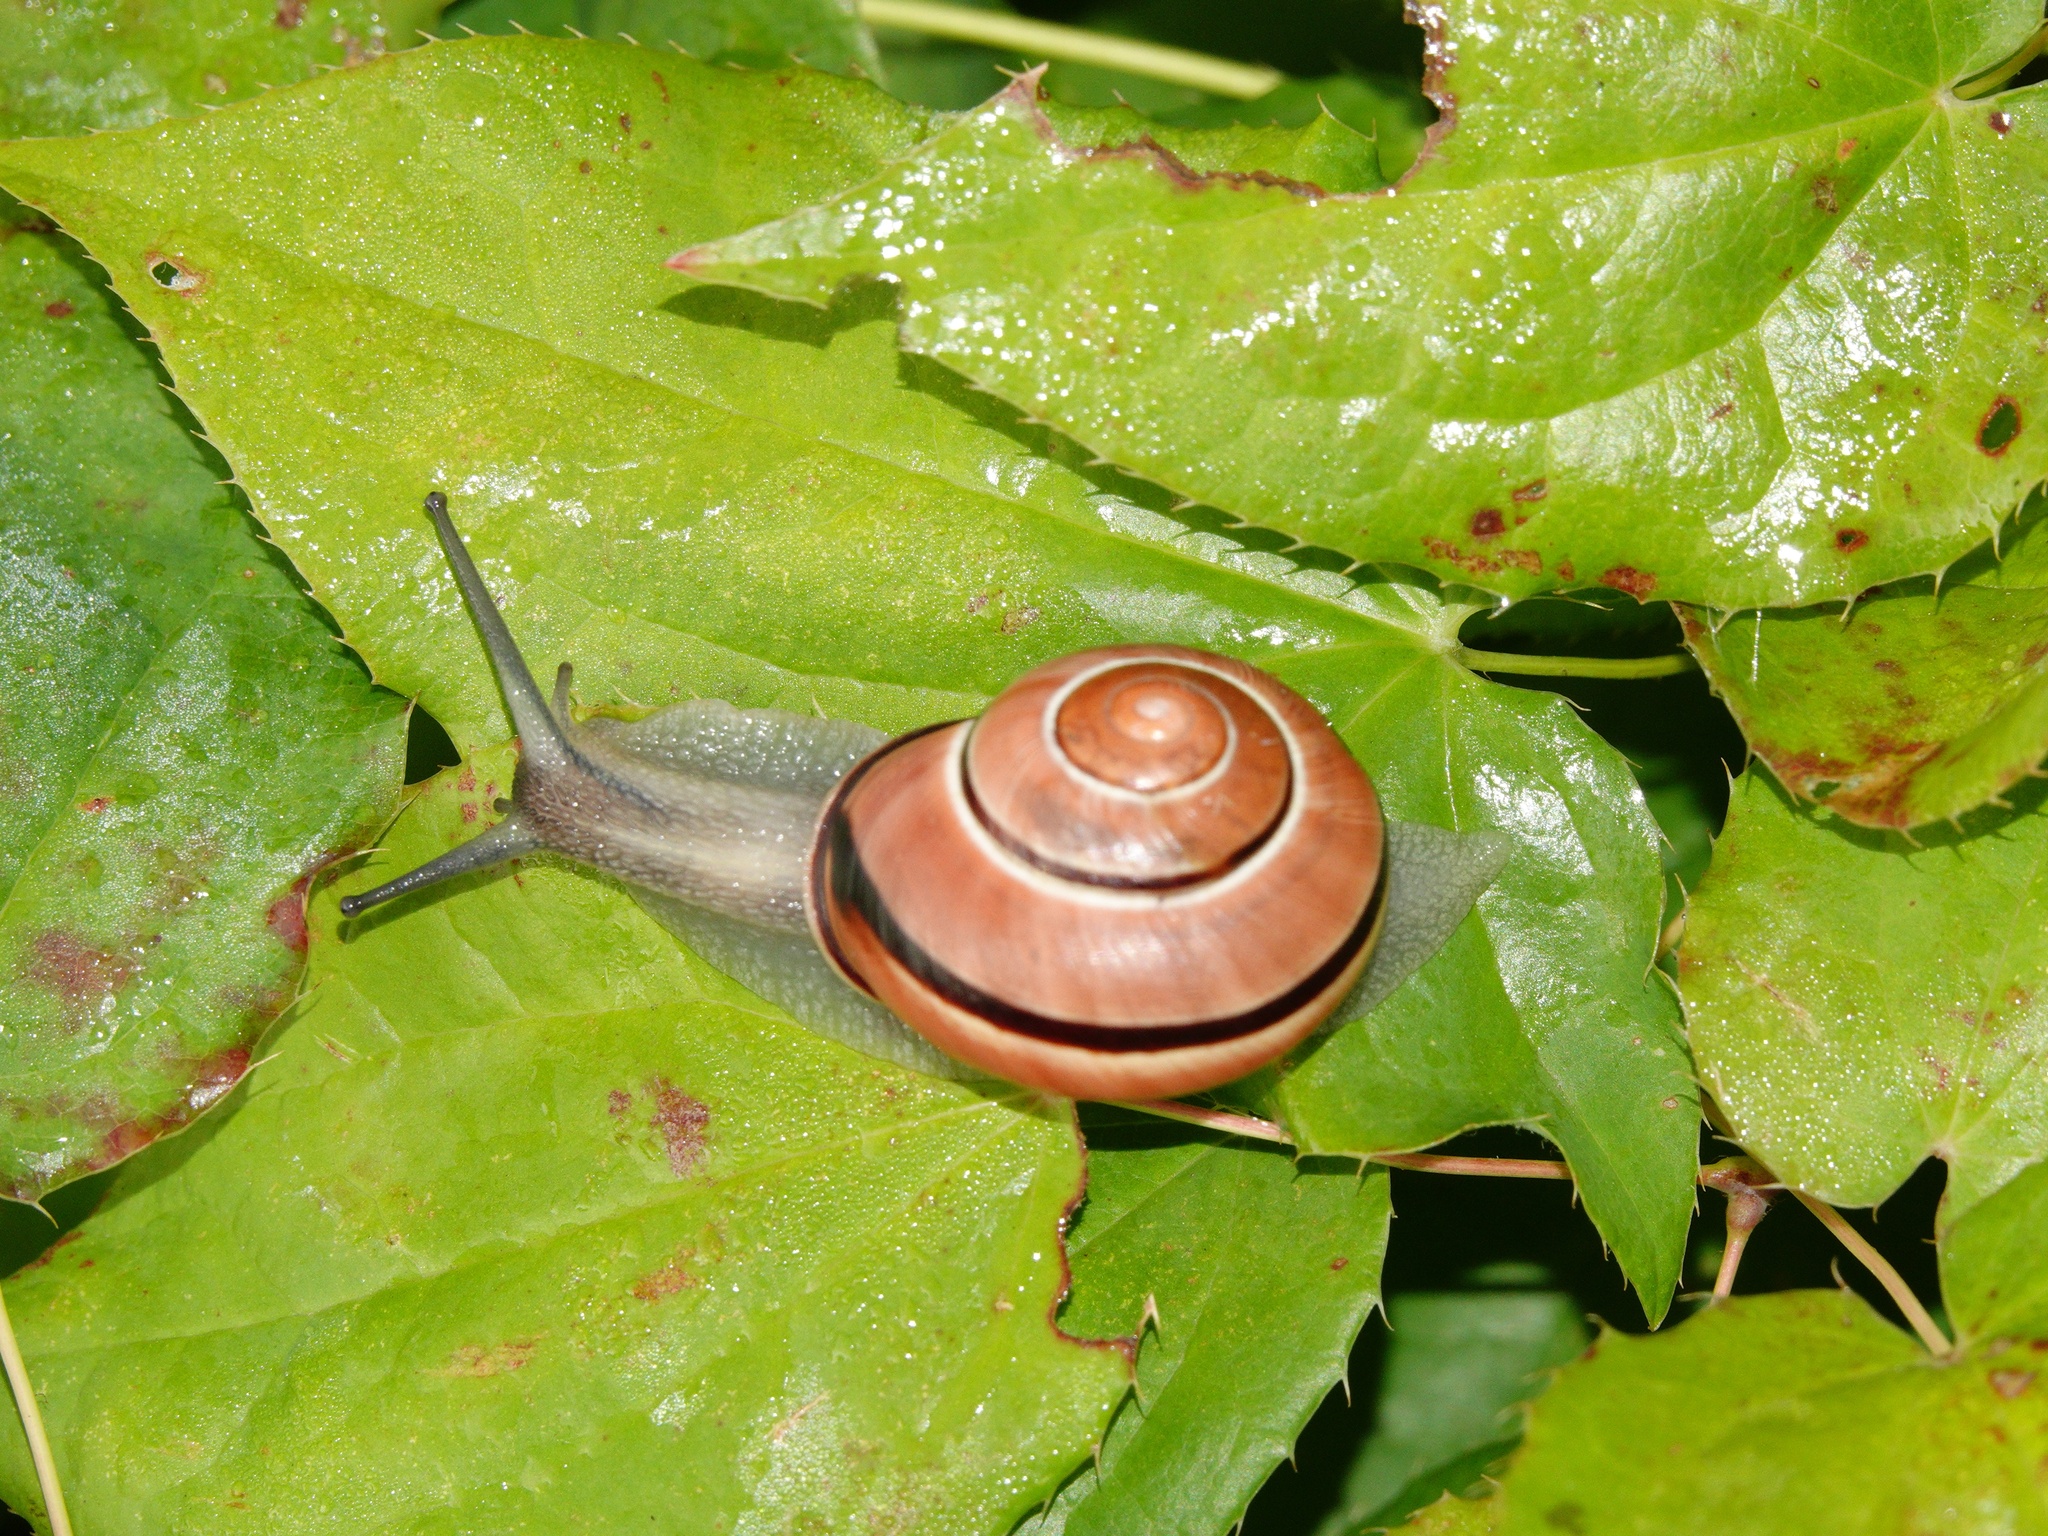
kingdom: Animalia
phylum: Mollusca
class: Gastropoda
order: Stylommatophora
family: Helicidae
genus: Cepaea
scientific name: Cepaea nemoralis
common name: Grovesnail
